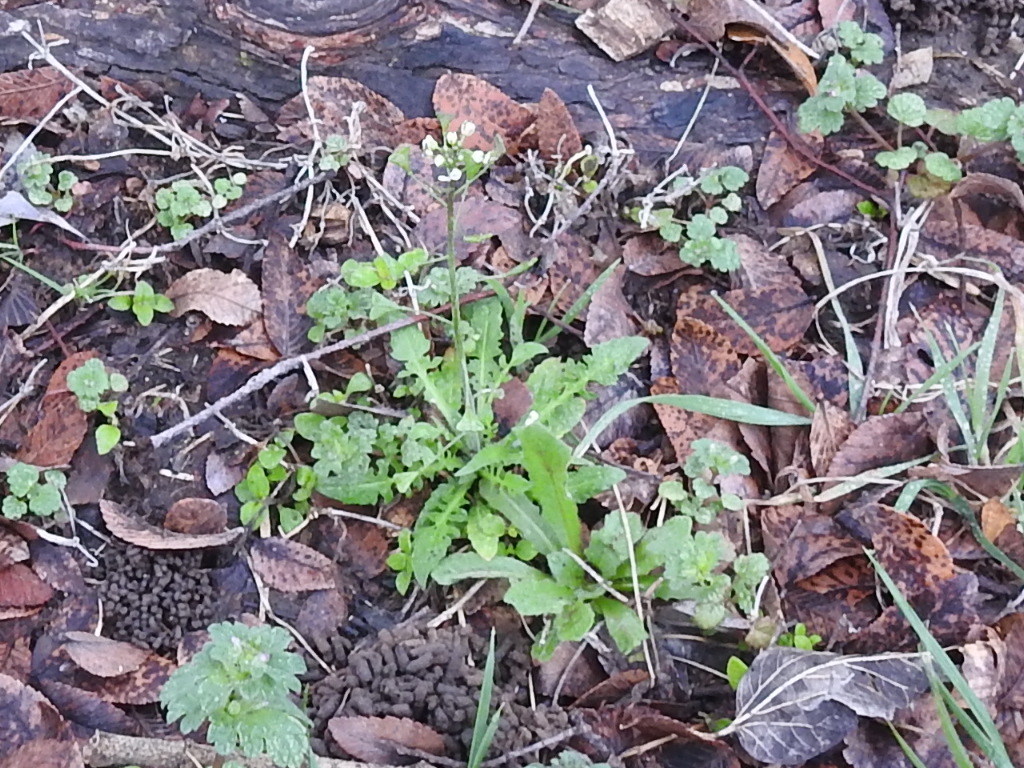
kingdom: Plantae
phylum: Tracheophyta
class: Magnoliopsida
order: Brassicales
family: Brassicaceae
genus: Capsella
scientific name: Capsella bursa-pastoris
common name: Shepherd's purse
